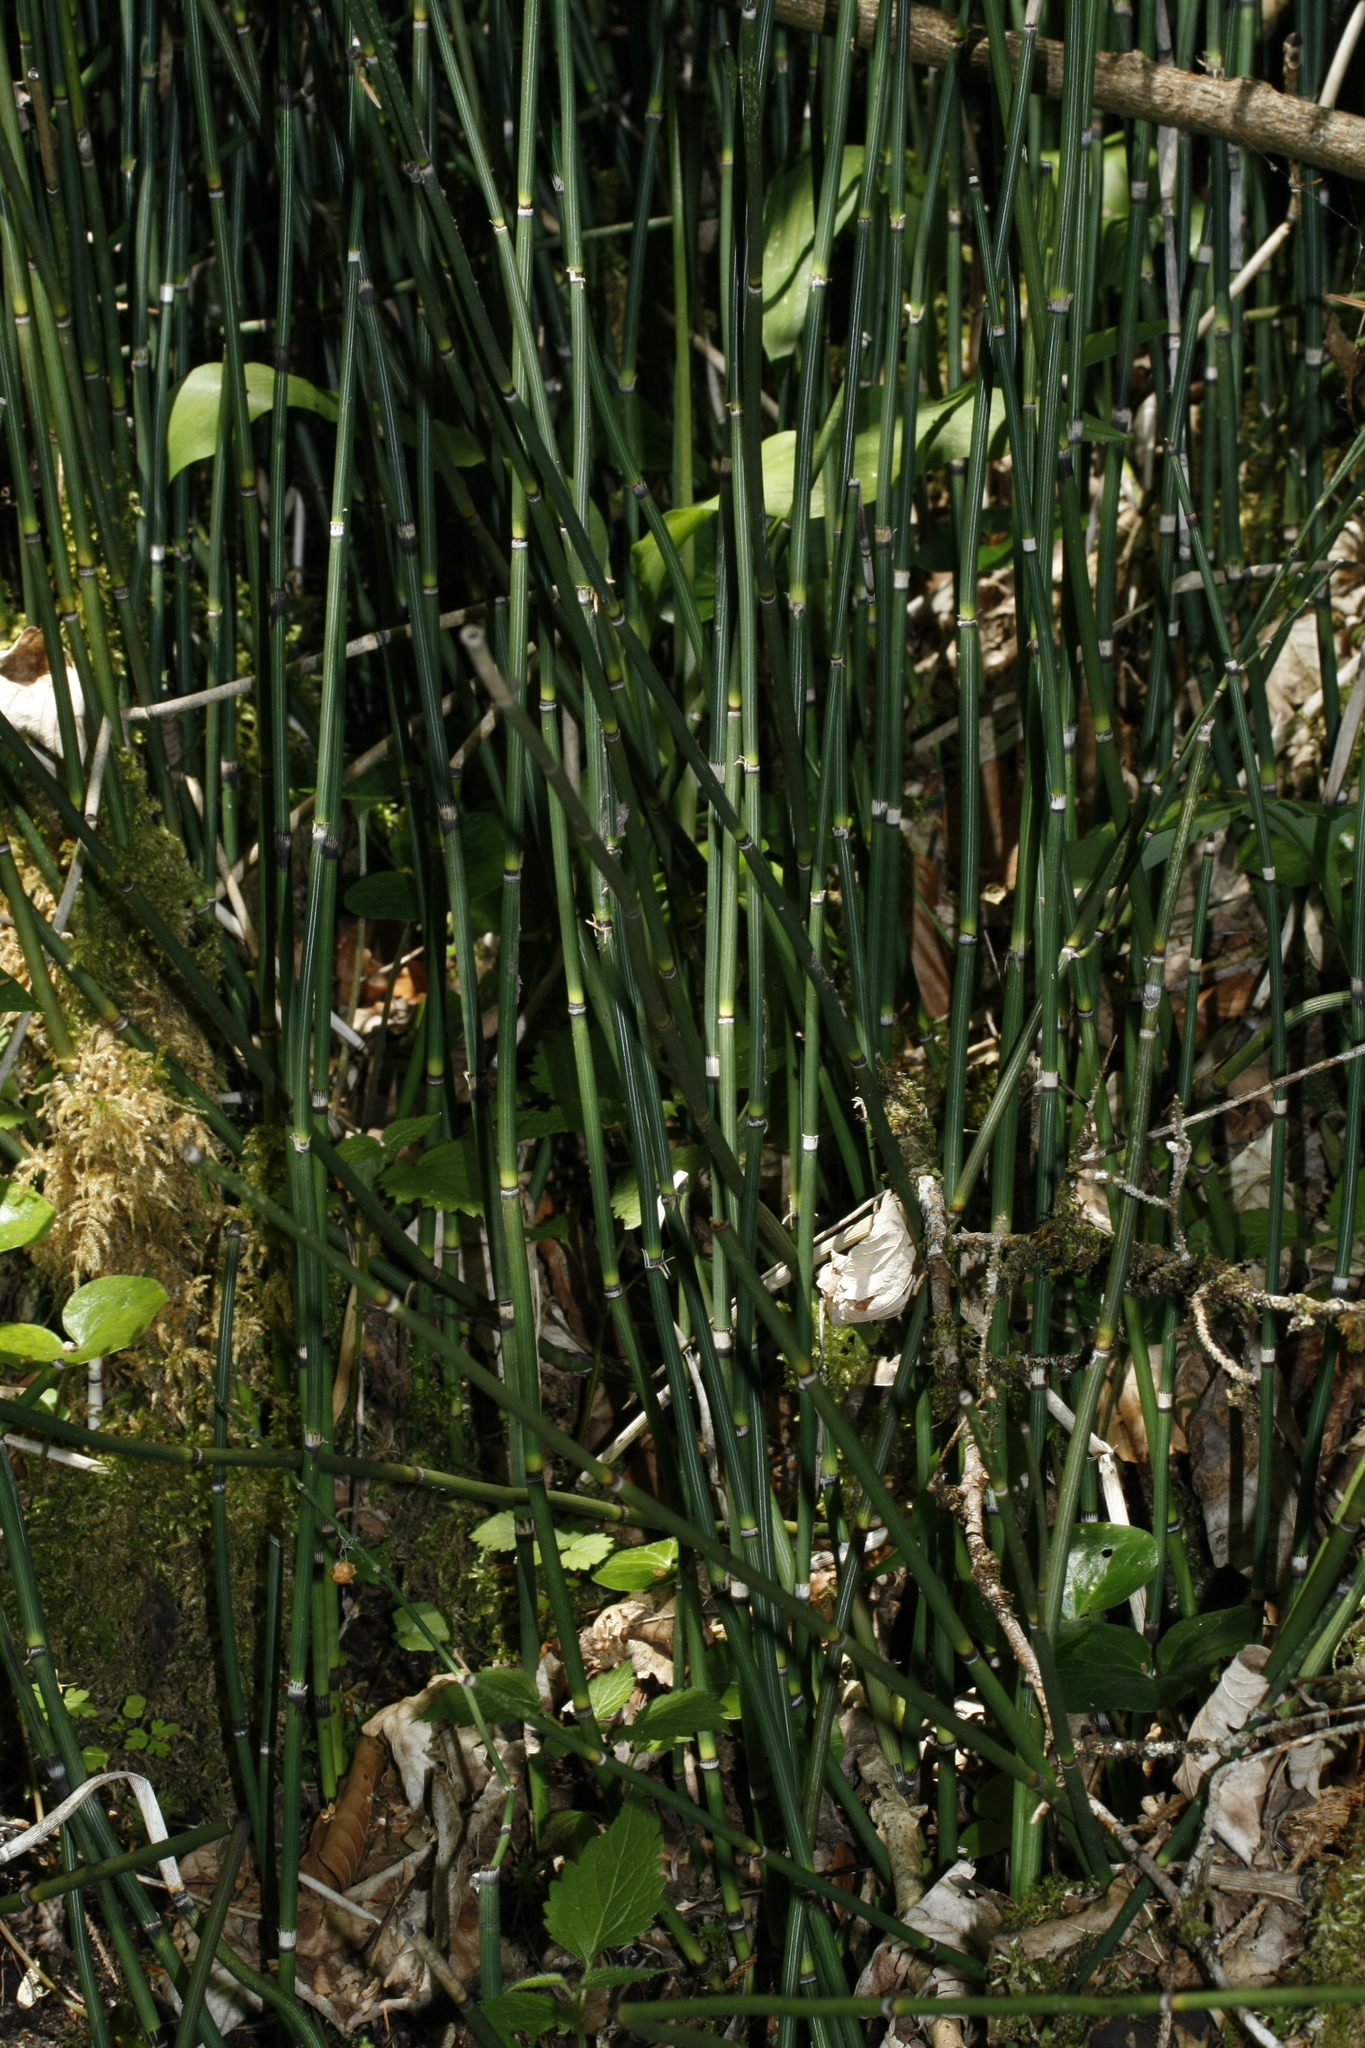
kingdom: Plantae
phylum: Tracheophyta
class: Polypodiopsida
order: Equisetales
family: Equisetaceae
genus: Equisetum
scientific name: Equisetum hyemale
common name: Rough horsetail
